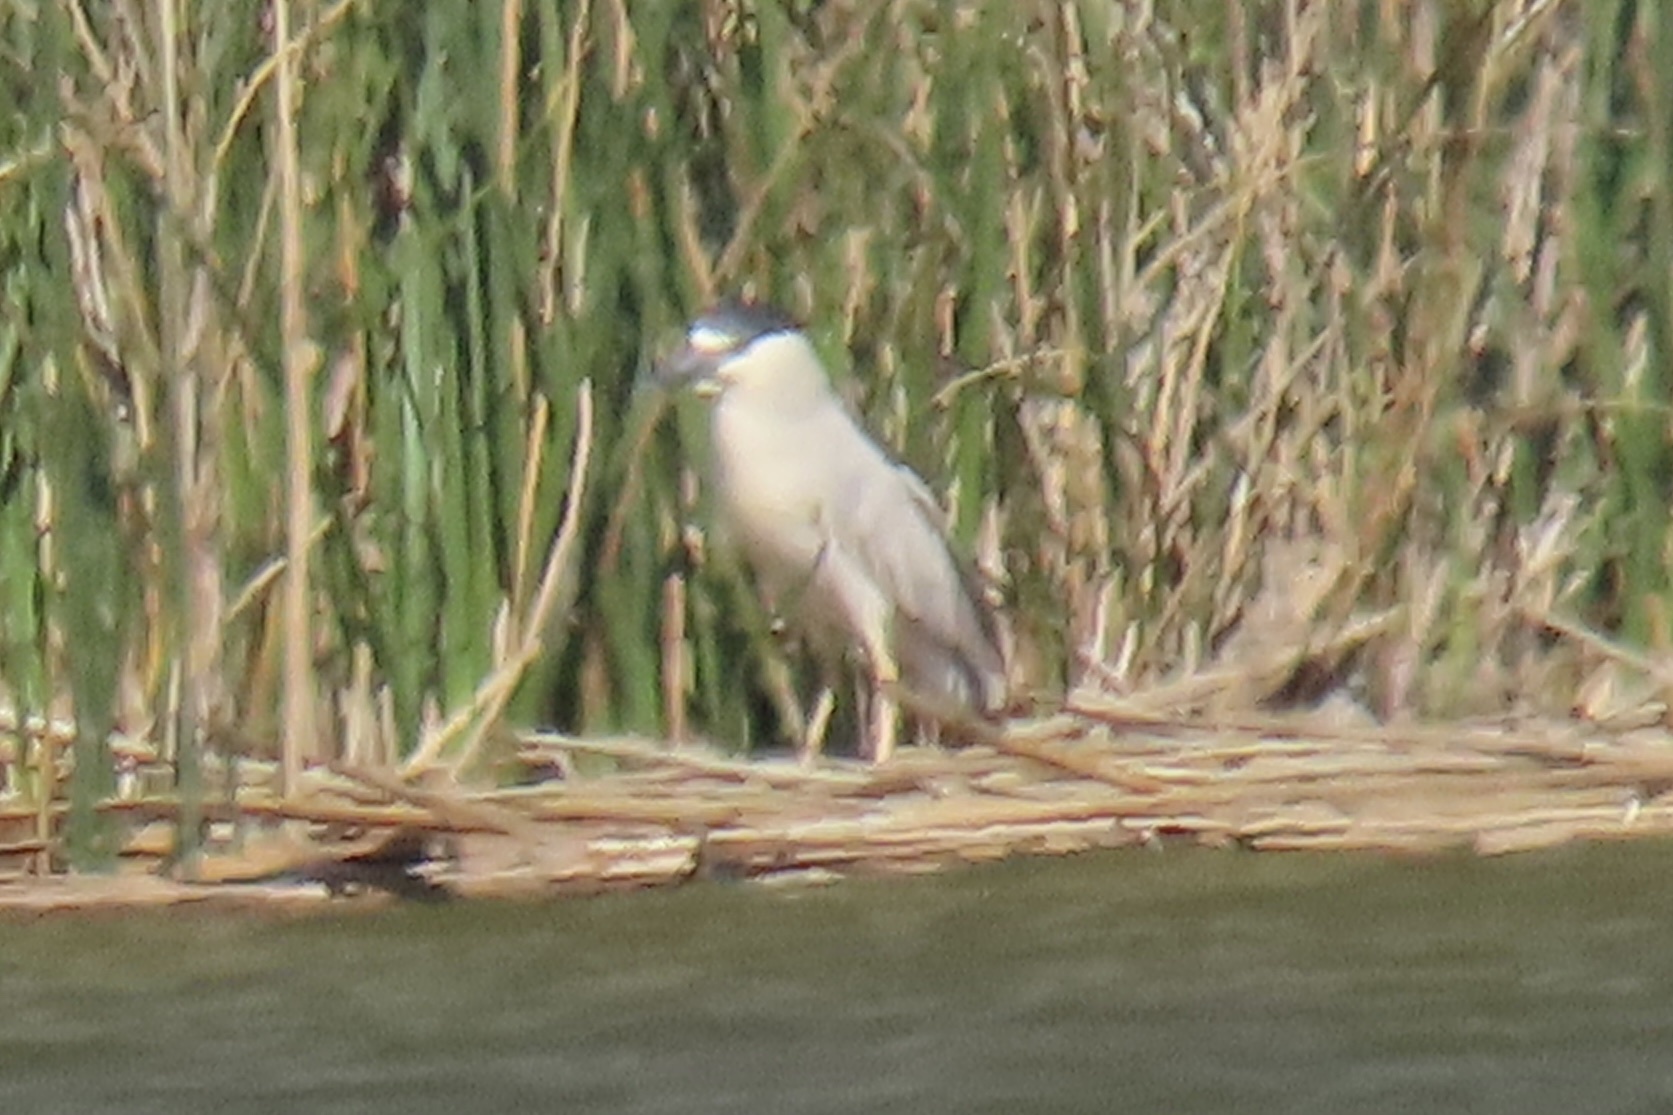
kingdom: Animalia
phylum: Chordata
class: Aves
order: Pelecaniformes
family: Ardeidae
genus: Nycticorax
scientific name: Nycticorax nycticorax
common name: Black-crowned night heron
